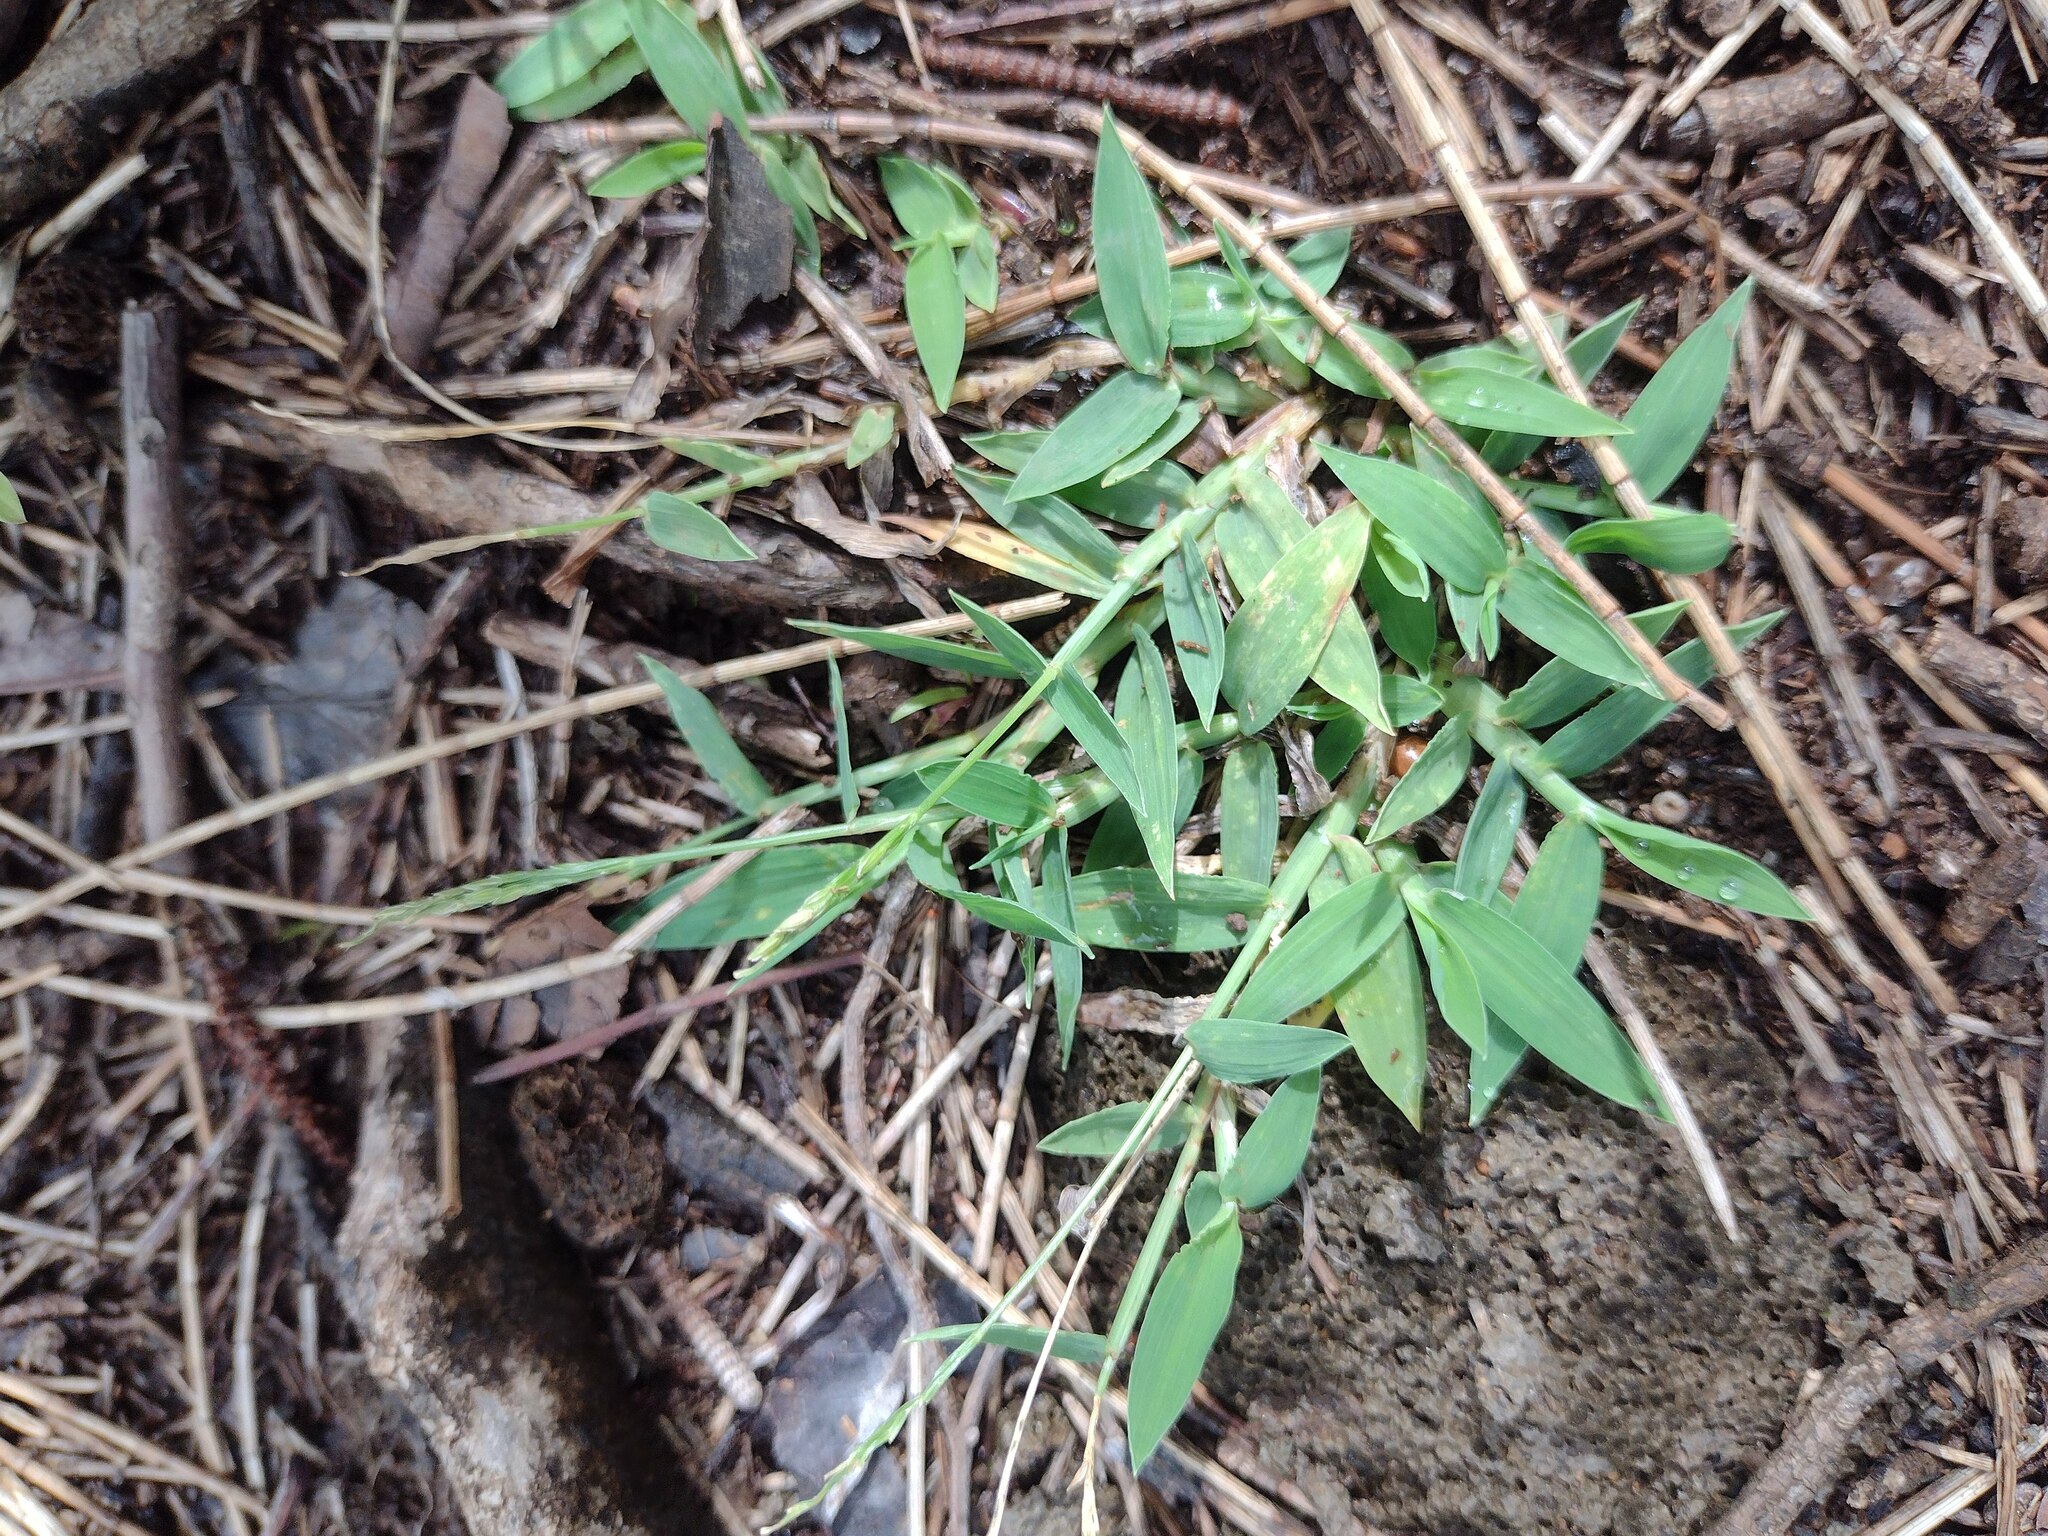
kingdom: Plantae
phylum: Tracheophyta
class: Liliopsida
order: Poales
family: Poaceae
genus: Digitaria
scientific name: Digitaria ciliaris
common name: Tropical finger-grass
